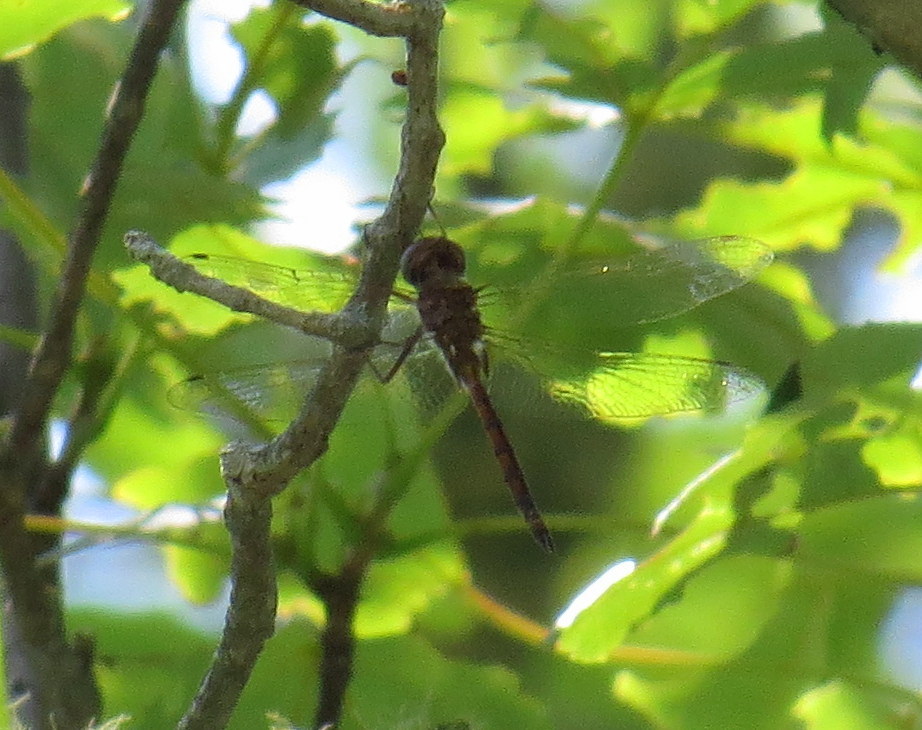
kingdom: Animalia
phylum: Arthropoda
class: Insecta
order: Odonata
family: Corduliidae
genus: Somatochlora
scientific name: Somatochlora georgiana
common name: Coppery emerald
